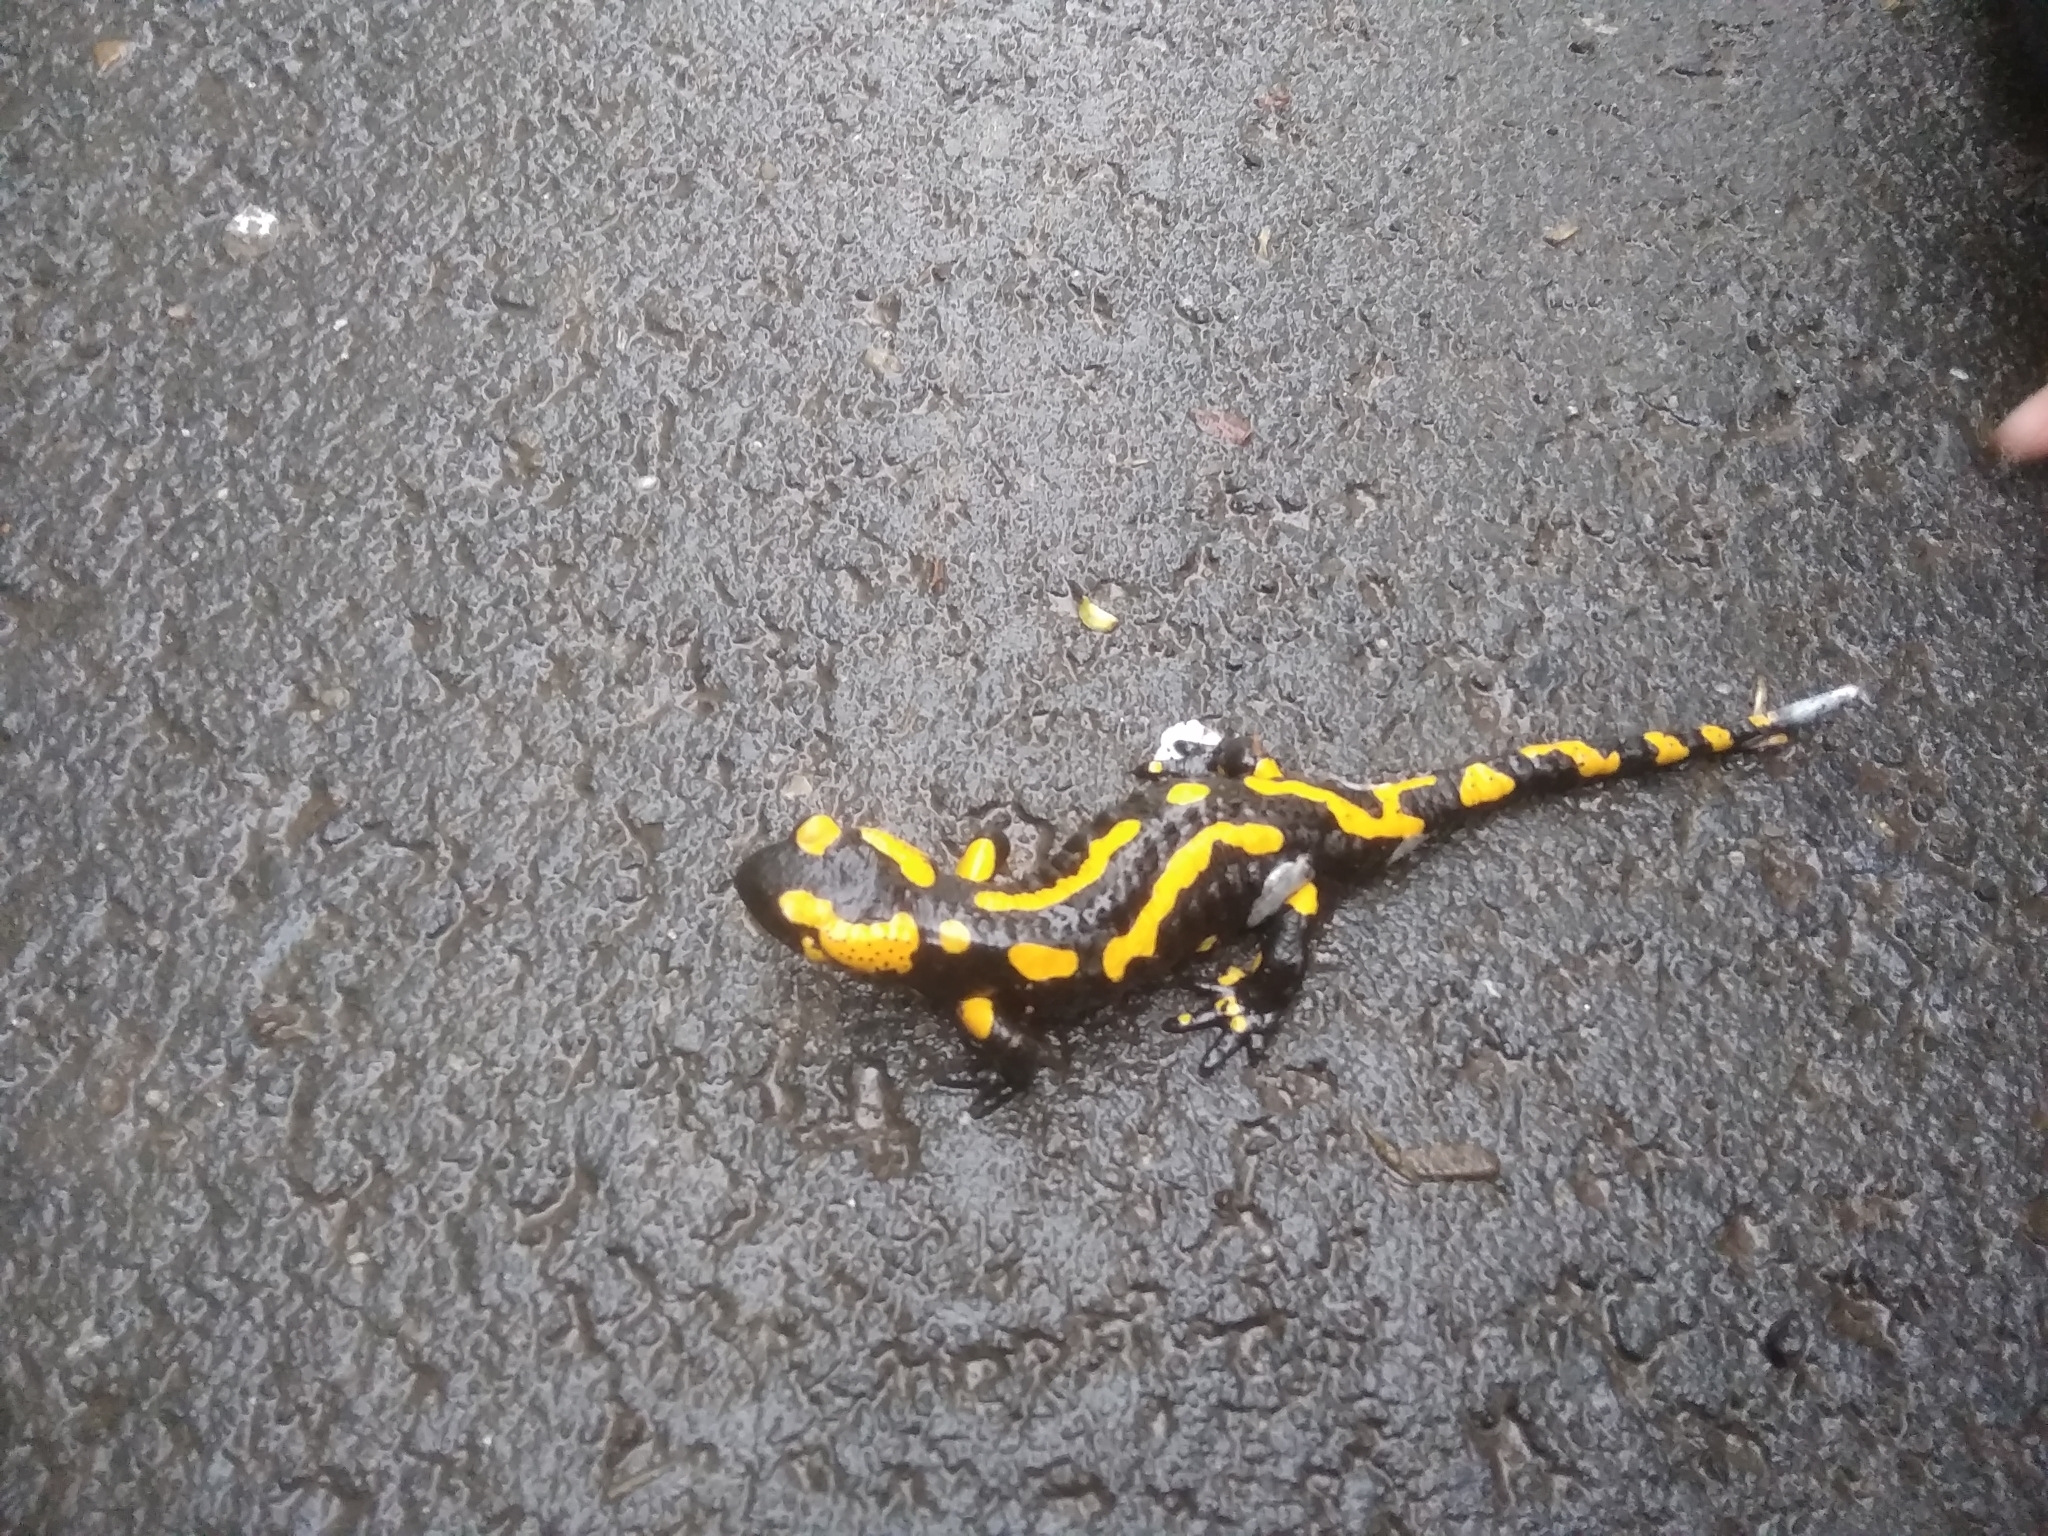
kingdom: Animalia
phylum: Chordata
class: Amphibia
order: Caudata
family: Salamandridae
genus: Salamandra
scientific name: Salamandra salamandra
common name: Fire salamander
